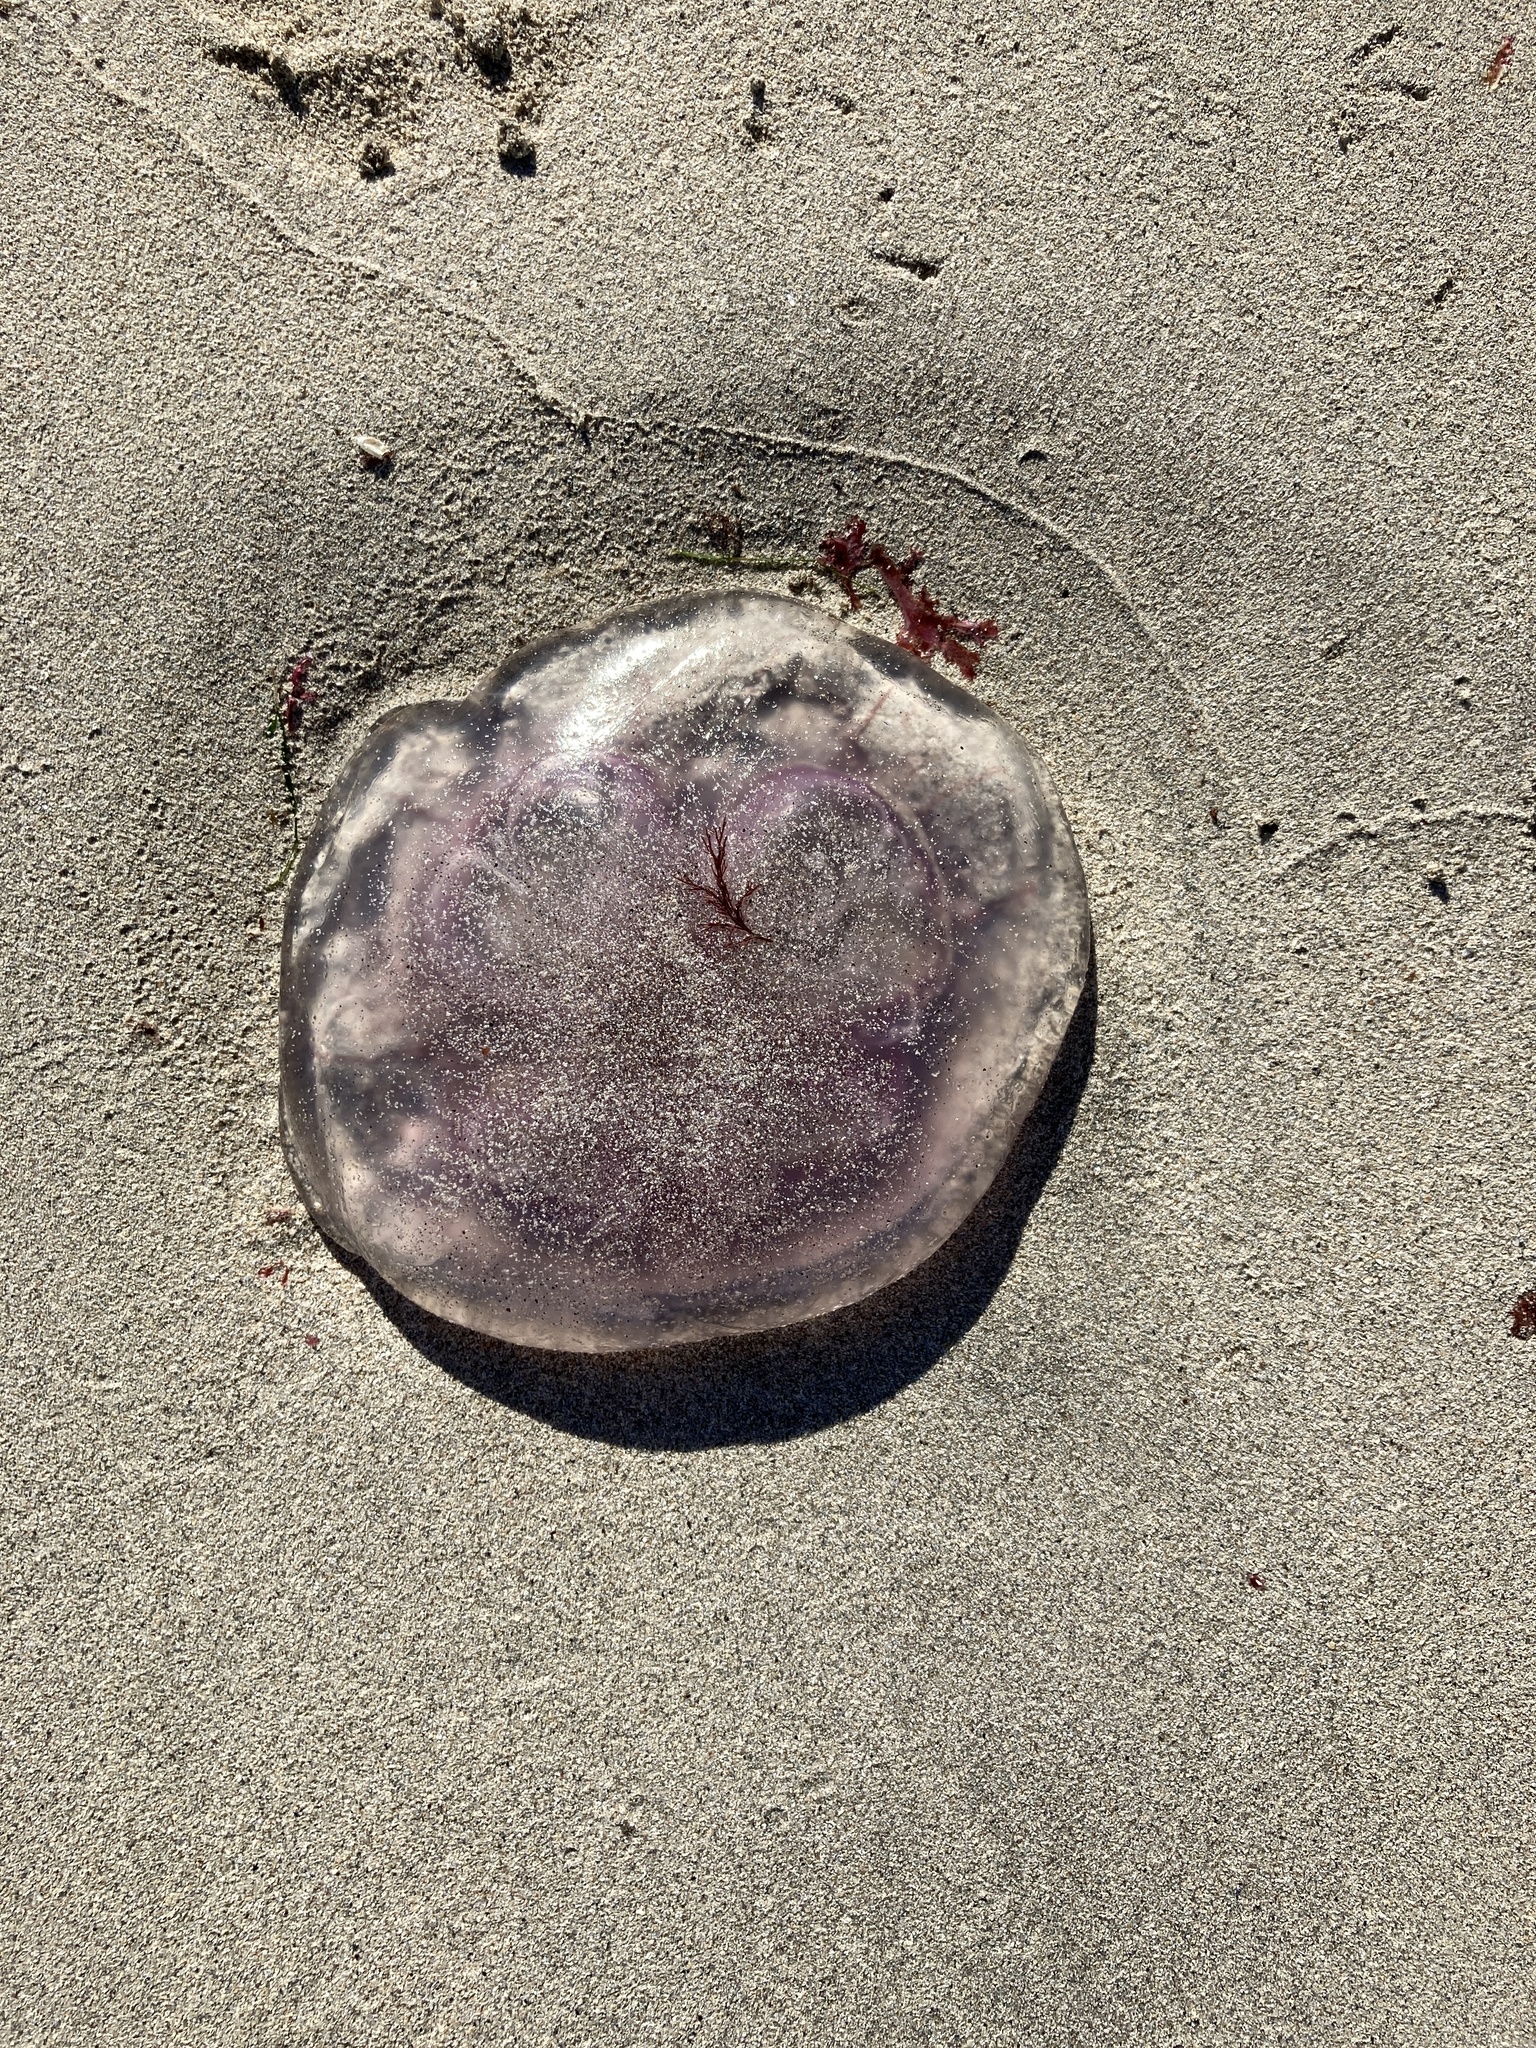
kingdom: Animalia
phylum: Cnidaria
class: Scyphozoa
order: Semaeostomeae
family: Ulmaridae
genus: Aurelia
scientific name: Aurelia aurita
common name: Moon jellyfish
